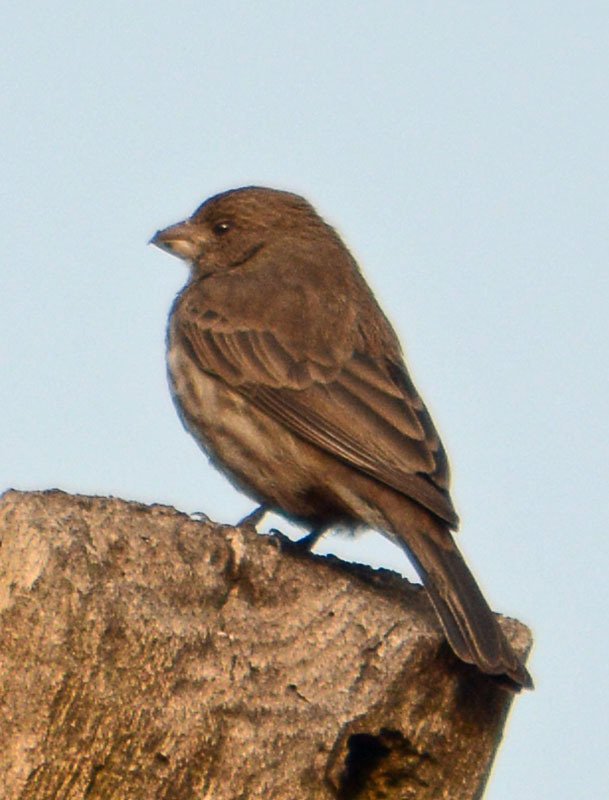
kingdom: Animalia
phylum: Chordata
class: Aves
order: Passeriformes
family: Fringillidae
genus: Haemorhous
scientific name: Haemorhous mexicanus
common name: House finch
